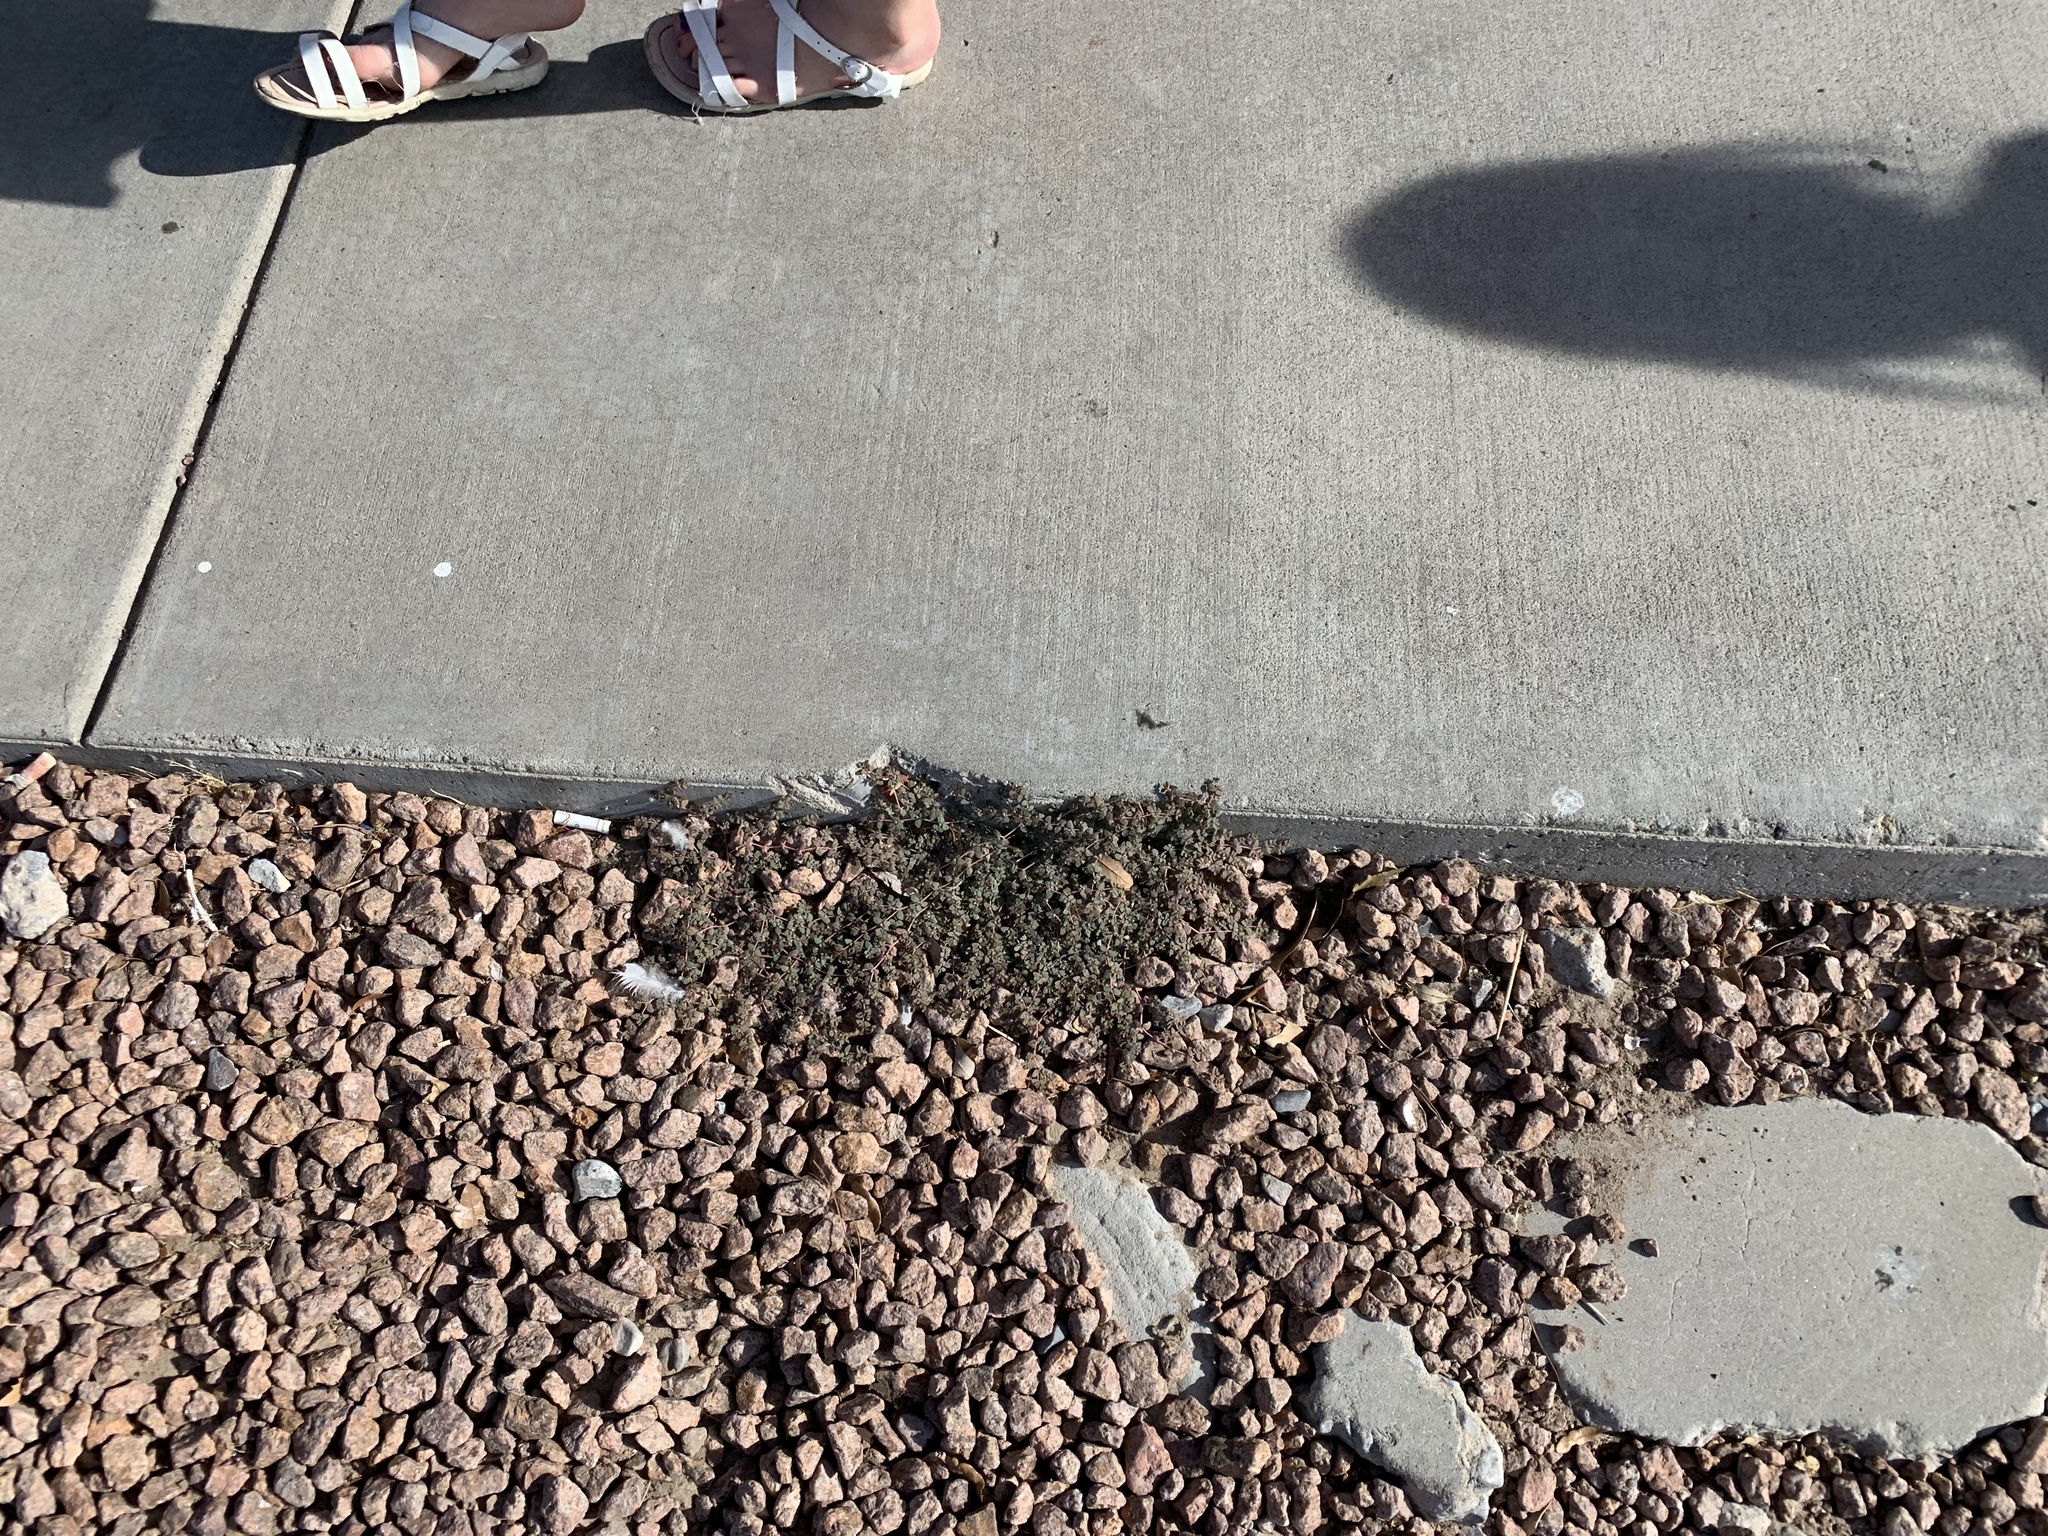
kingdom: Plantae
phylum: Tracheophyta
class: Magnoliopsida
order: Malpighiales
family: Euphorbiaceae
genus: Euphorbia
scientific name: Euphorbia micromera
